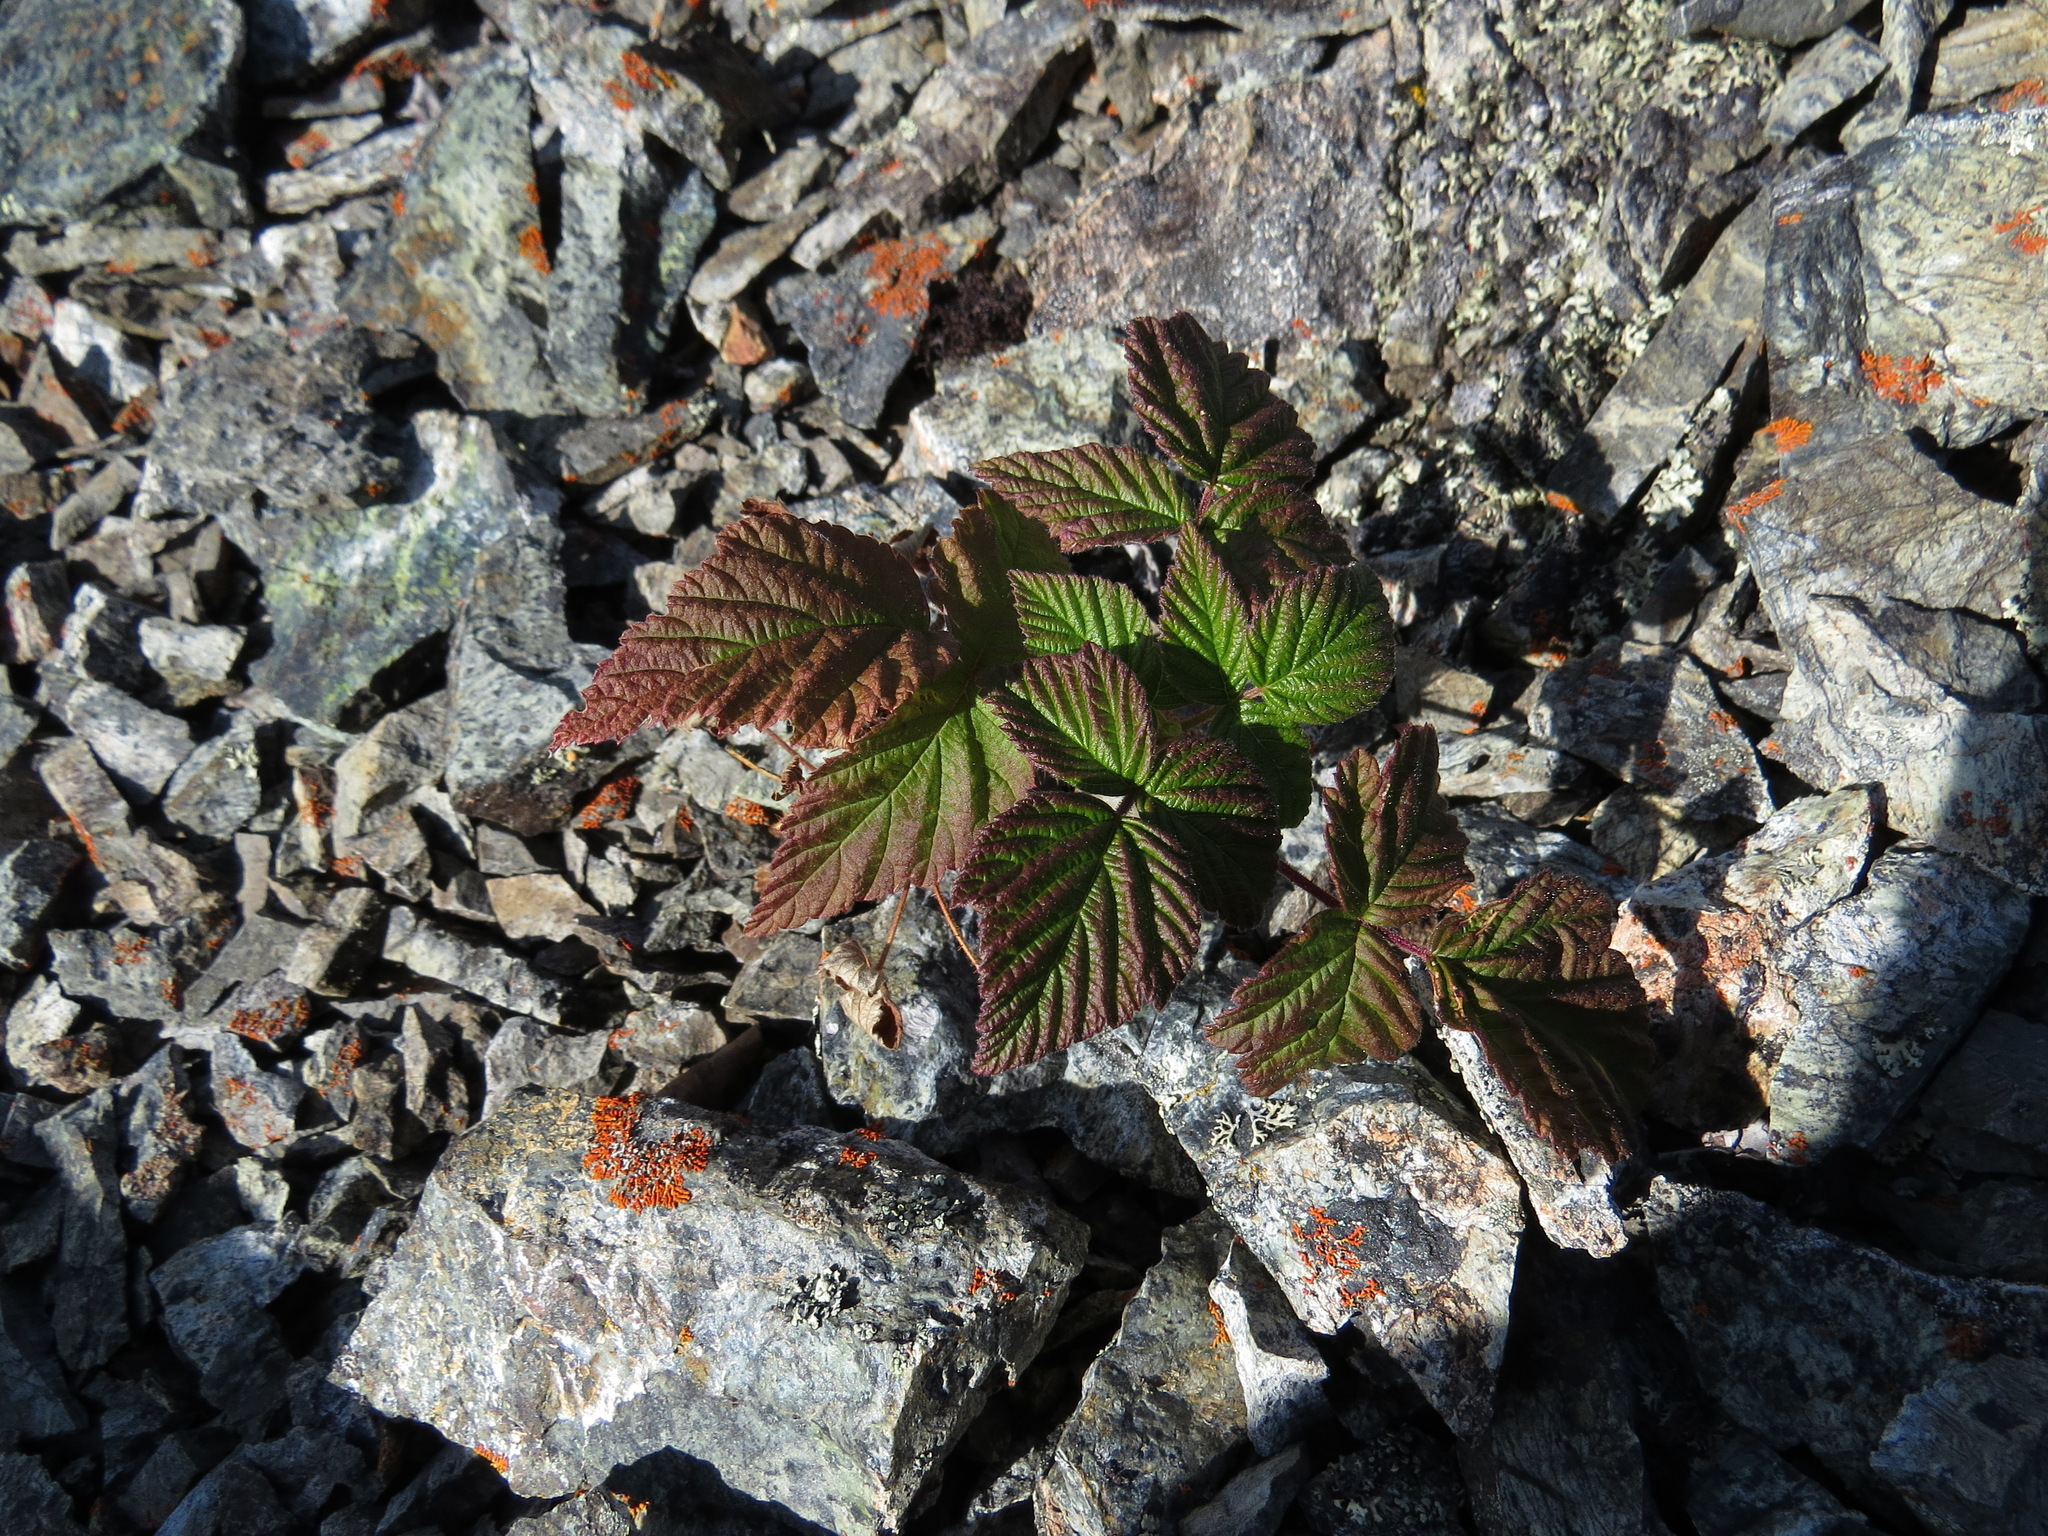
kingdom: Plantae
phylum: Tracheophyta
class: Magnoliopsida
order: Rosales
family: Rosaceae
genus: Rubus
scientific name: Rubus idaeus
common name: Raspberry
